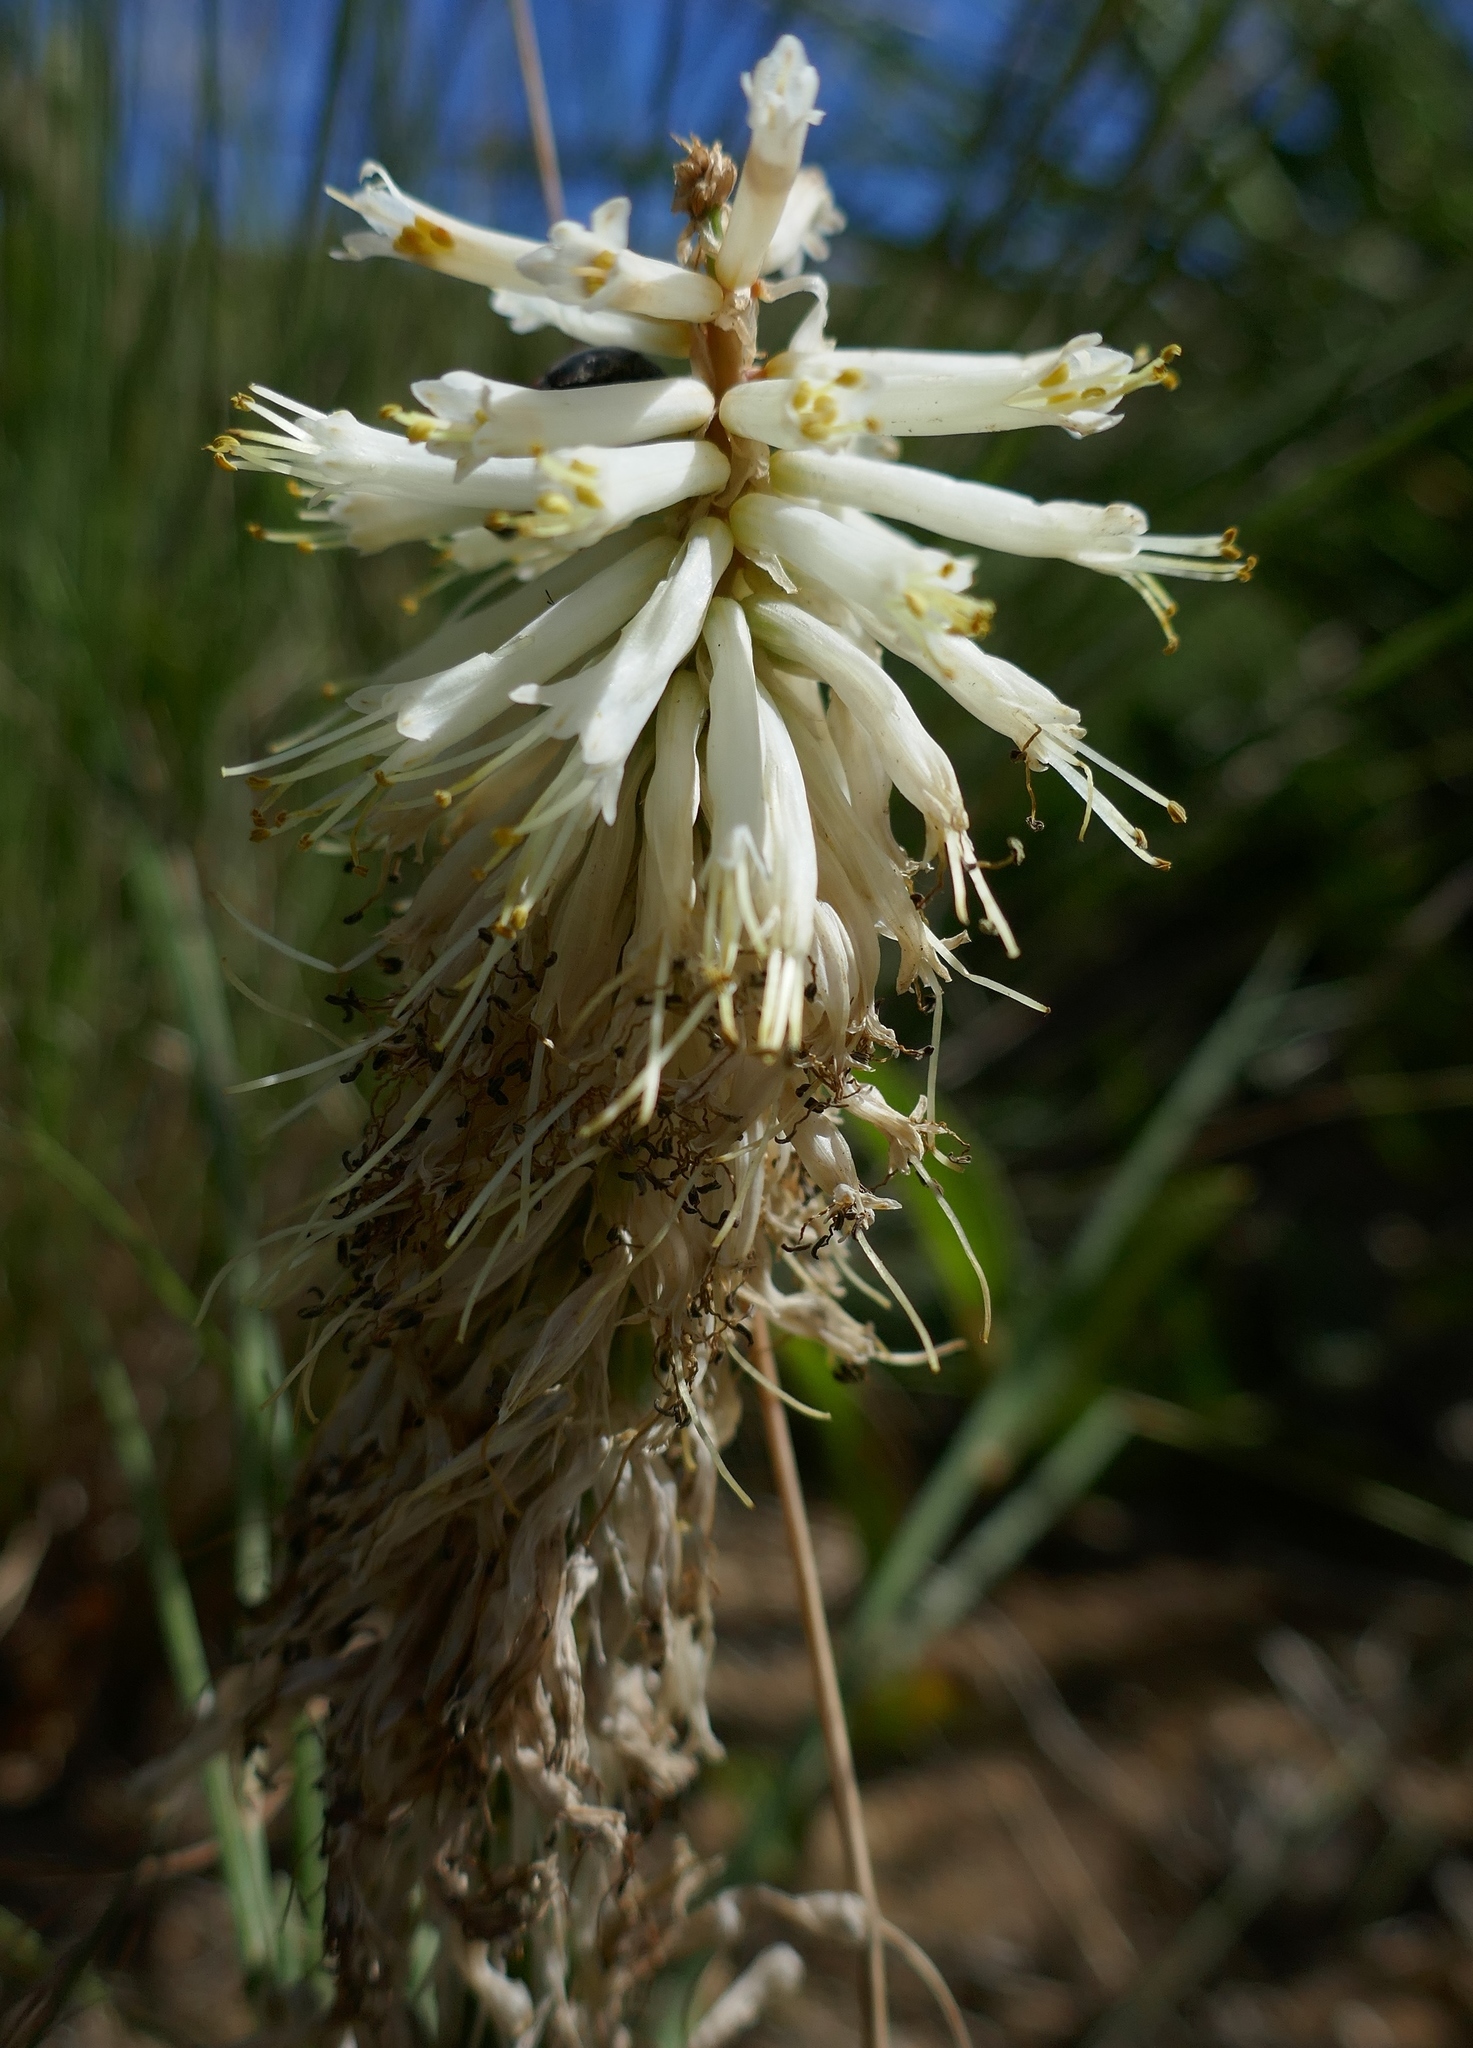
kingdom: Plantae
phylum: Tracheophyta
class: Liliopsida
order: Asparagales
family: Asphodelaceae
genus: Kniphofia
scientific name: Kniphofia albescens
